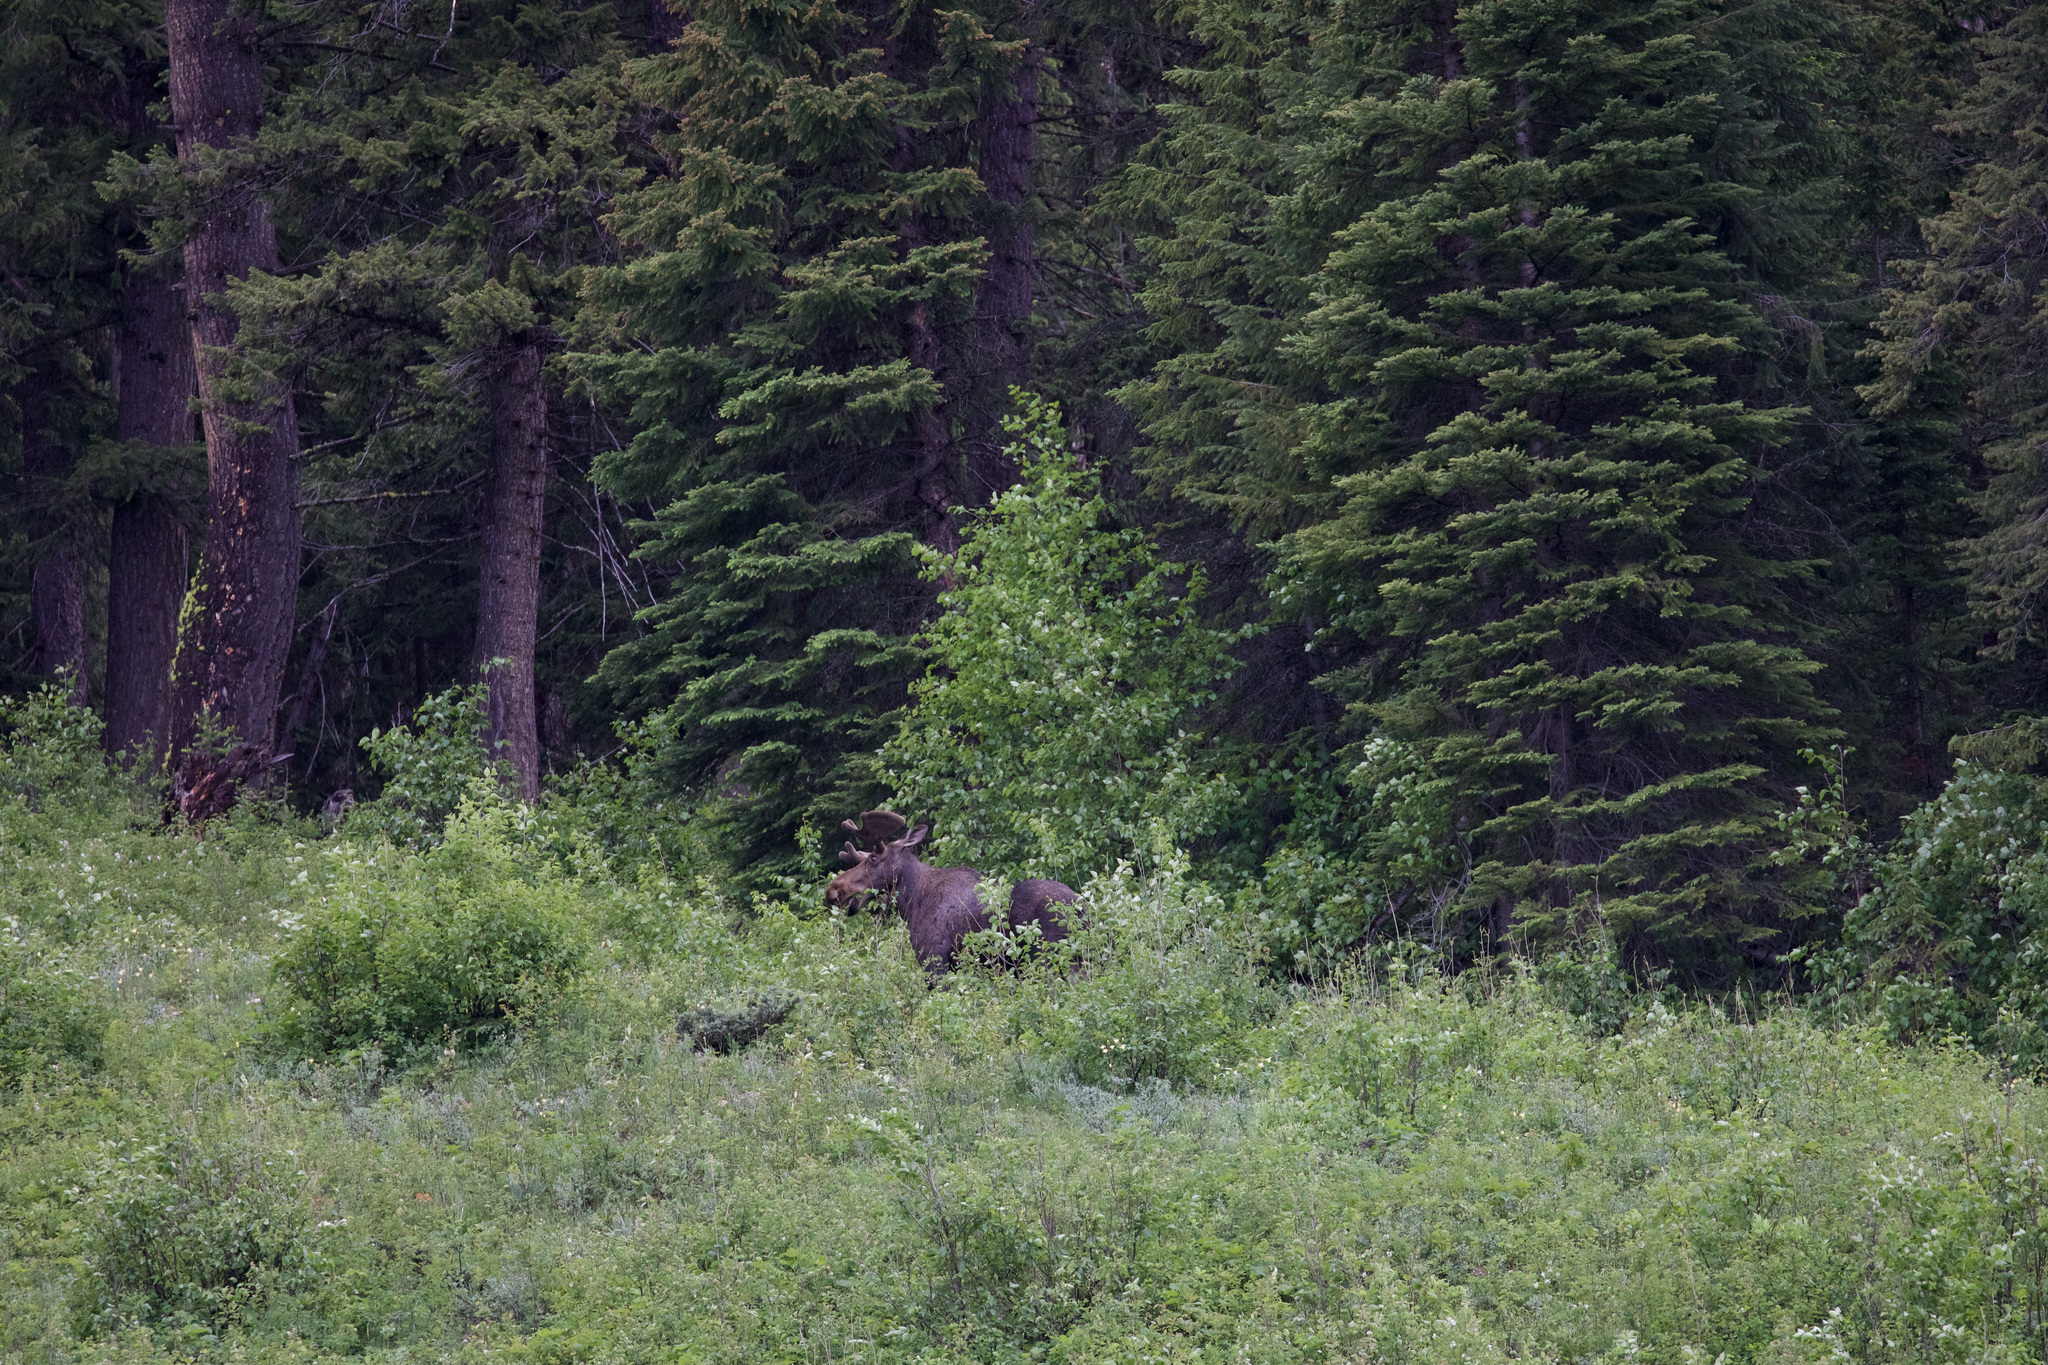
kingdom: Animalia
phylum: Chordata
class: Mammalia
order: Artiodactyla
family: Cervidae
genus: Alces
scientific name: Alces alces
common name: Moose
